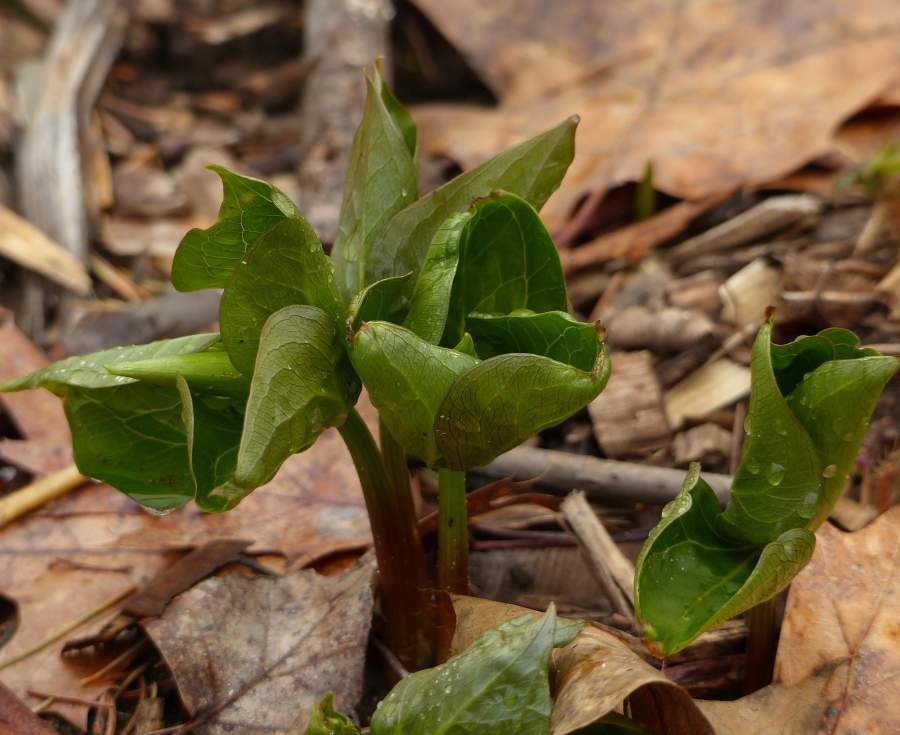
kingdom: Plantae
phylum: Tracheophyta
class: Liliopsida
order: Liliales
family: Melanthiaceae
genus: Trillium
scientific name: Trillium erectum
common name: Purple trillium
